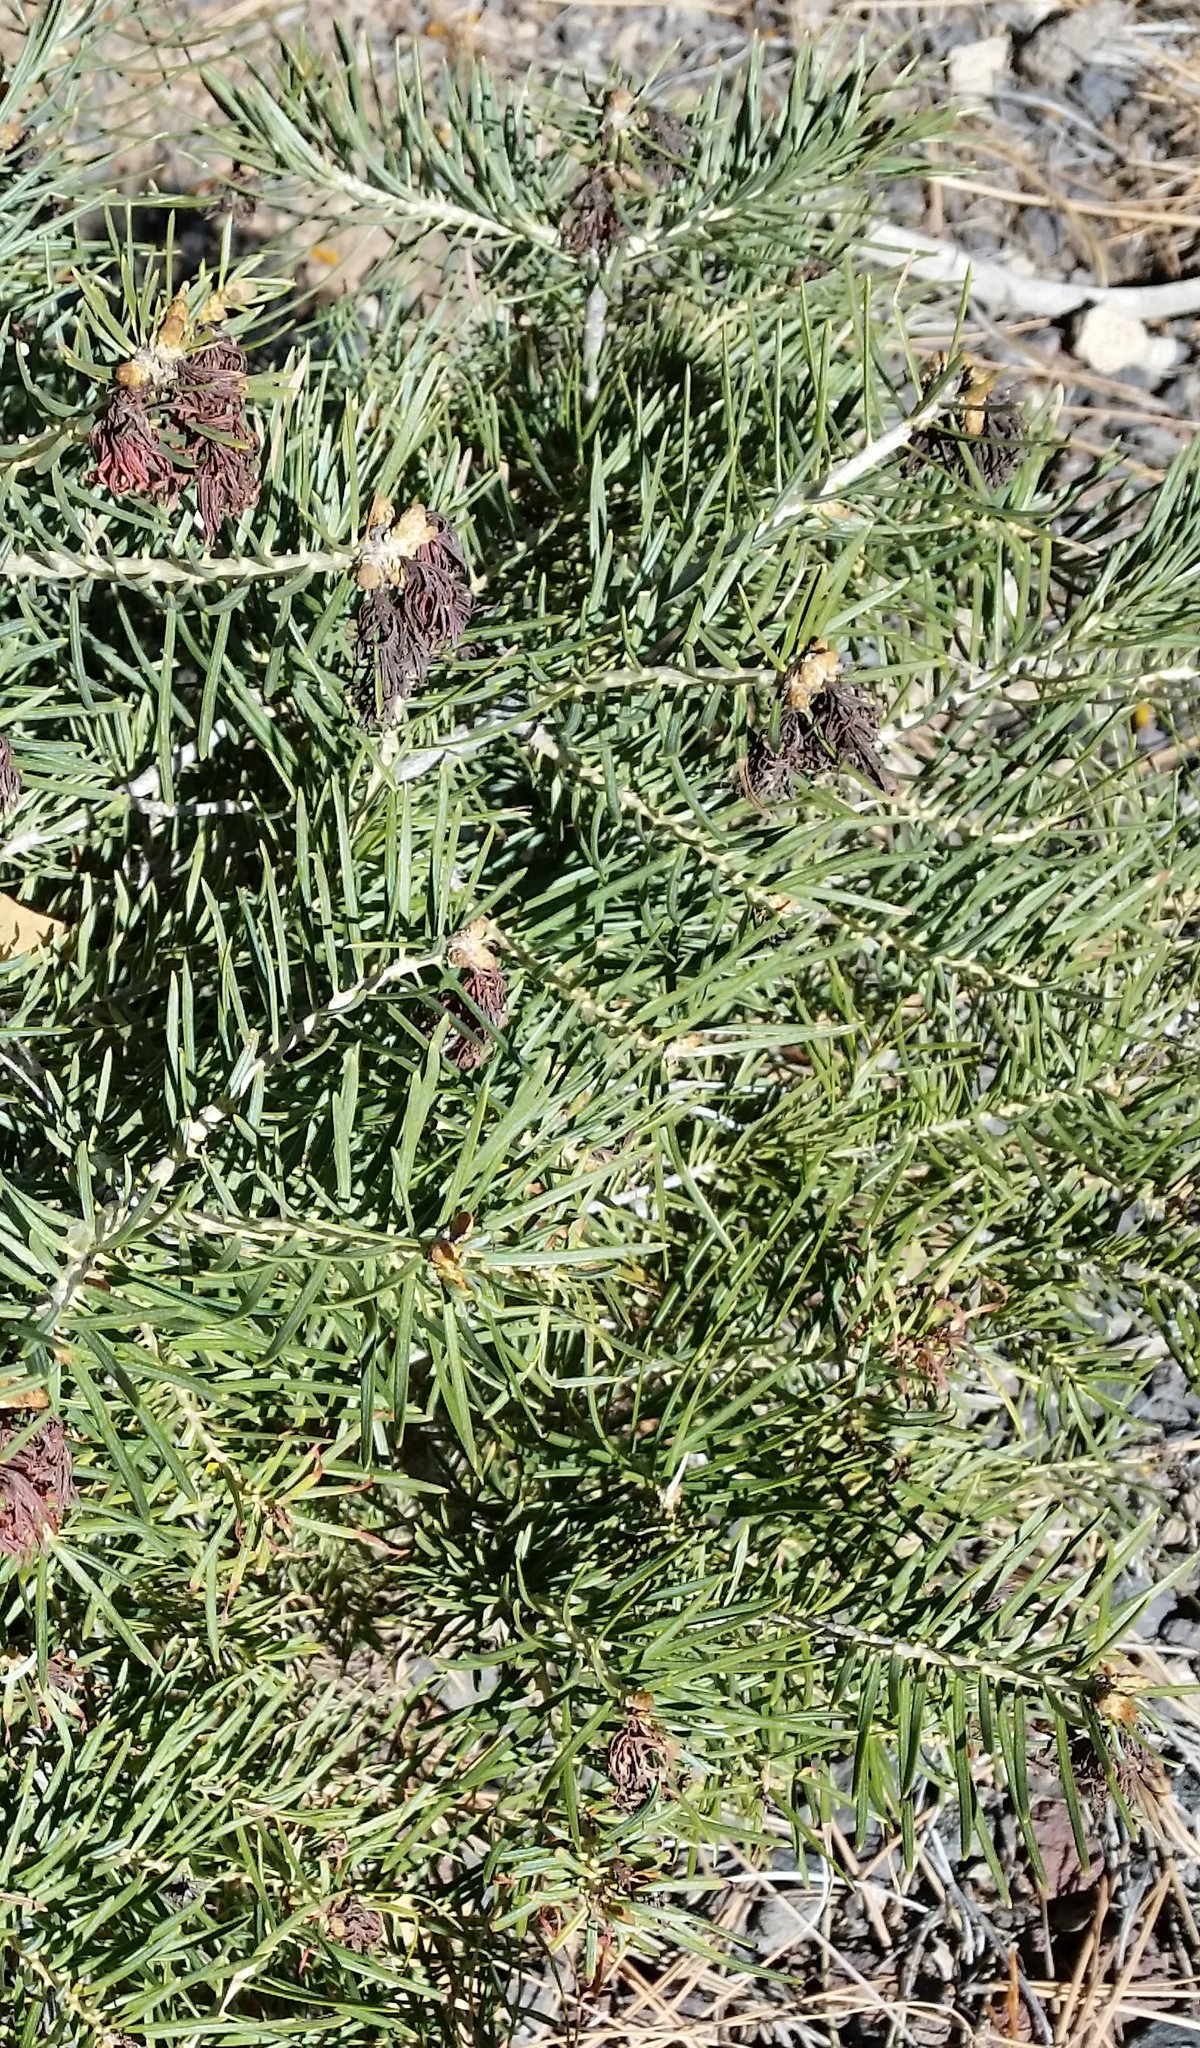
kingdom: Plantae
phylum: Tracheophyta
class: Pinopsida
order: Pinales
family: Pinaceae
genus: Abies
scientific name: Abies concolor
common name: Colorado fir
